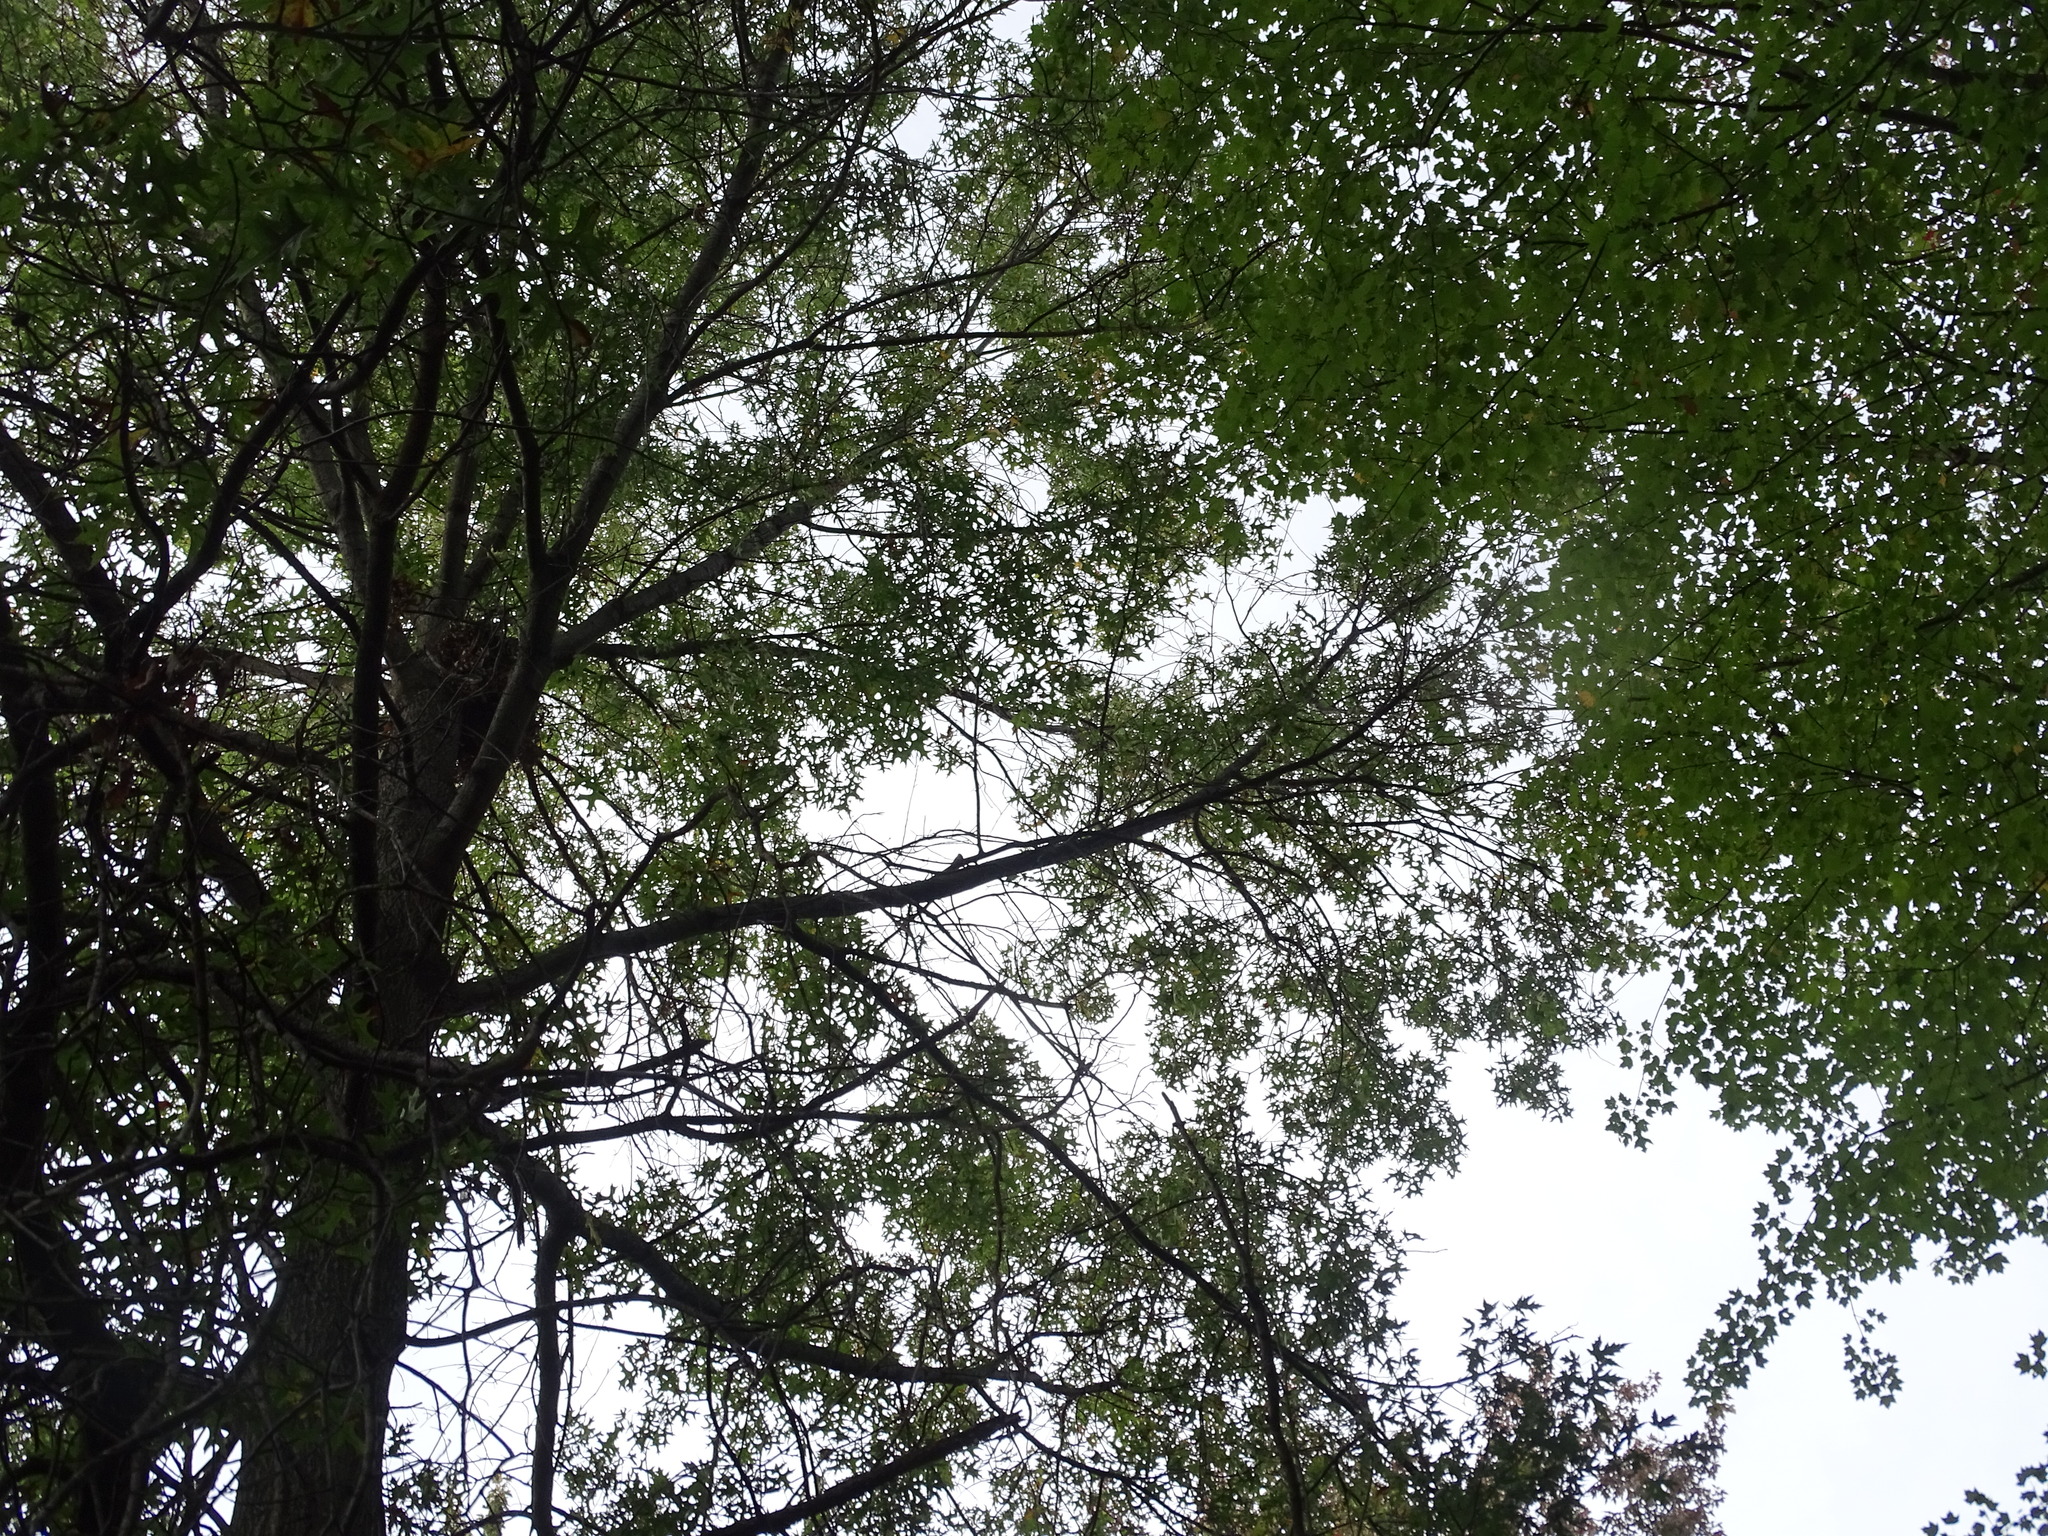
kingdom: Plantae
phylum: Tracheophyta
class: Magnoliopsida
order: Fagales
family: Fagaceae
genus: Quercus
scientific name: Quercus palustris
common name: Pin oak
